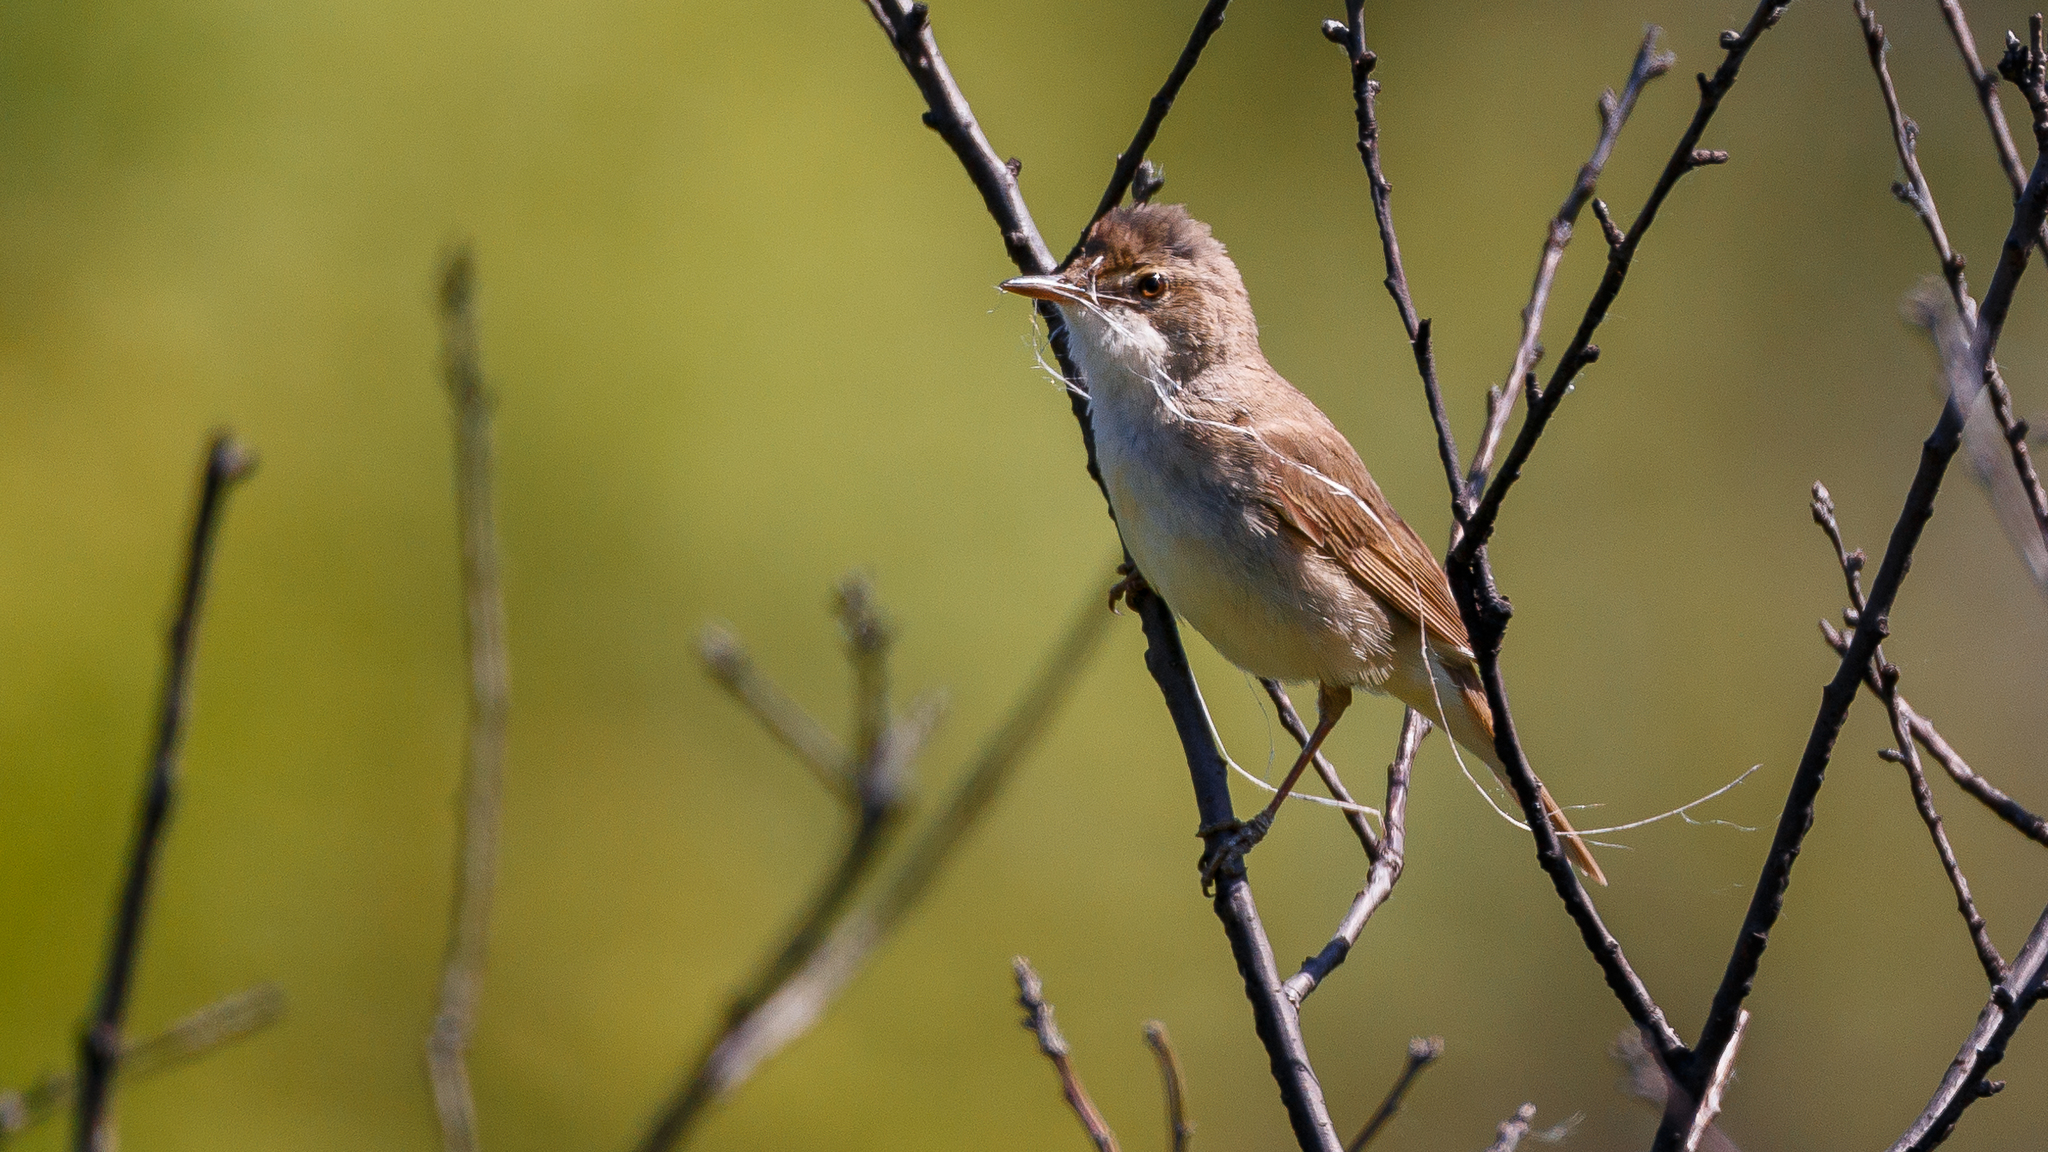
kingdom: Animalia
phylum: Chordata
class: Aves
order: Passeriformes
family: Sylviidae
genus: Sylvia
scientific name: Sylvia communis
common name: Common whitethroat
